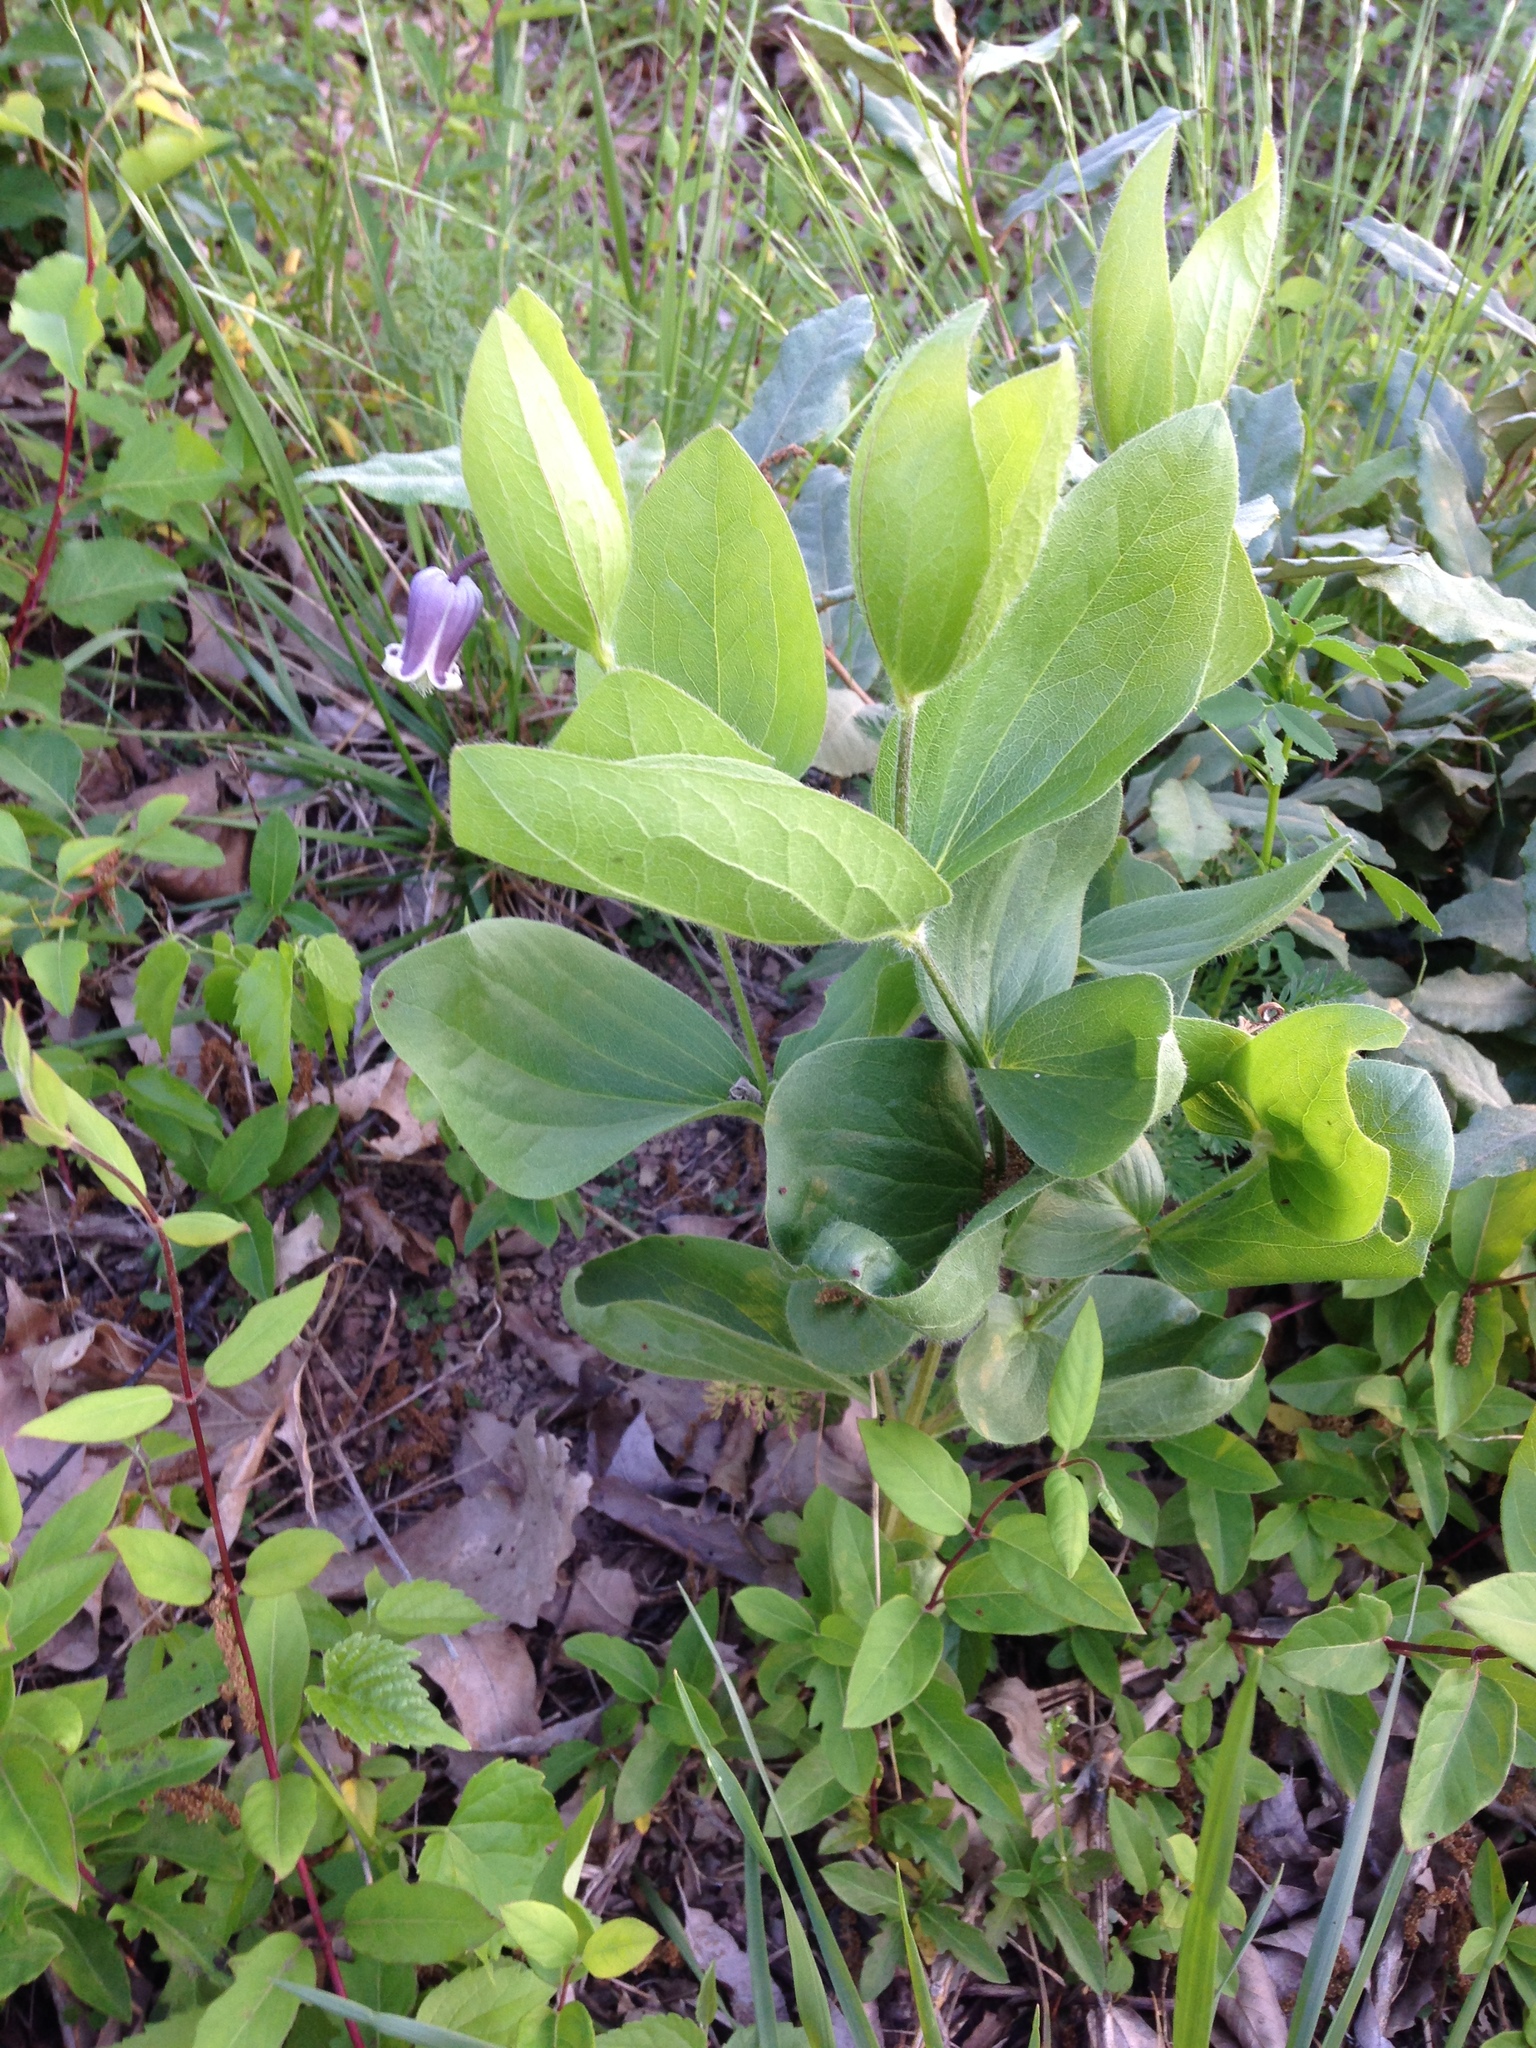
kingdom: Plantae
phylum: Tracheophyta
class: Magnoliopsida
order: Ranunculales
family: Ranunculaceae
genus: Clematis
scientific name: Clematis fremontii
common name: Fremont's clematis
